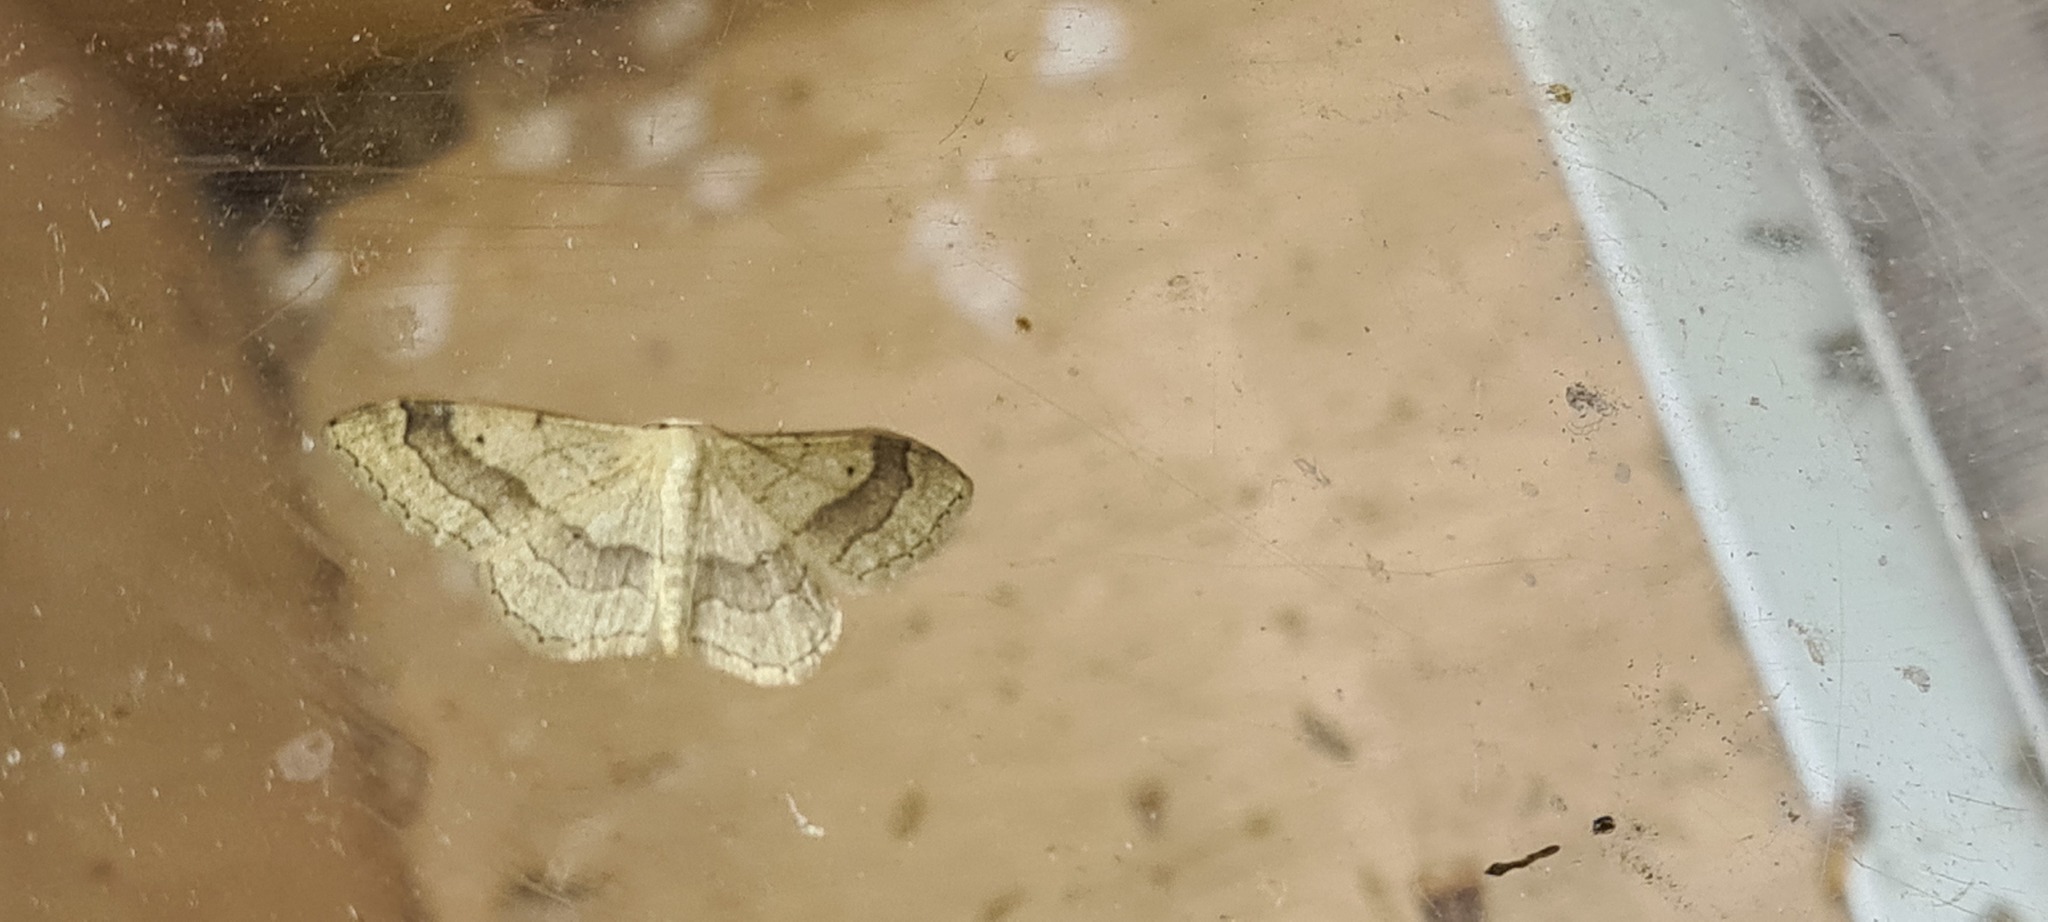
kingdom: Animalia
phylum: Arthropoda
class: Insecta
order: Lepidoptera
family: Geometridae
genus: Idaea
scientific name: Idaea aversata
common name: Riband wave
